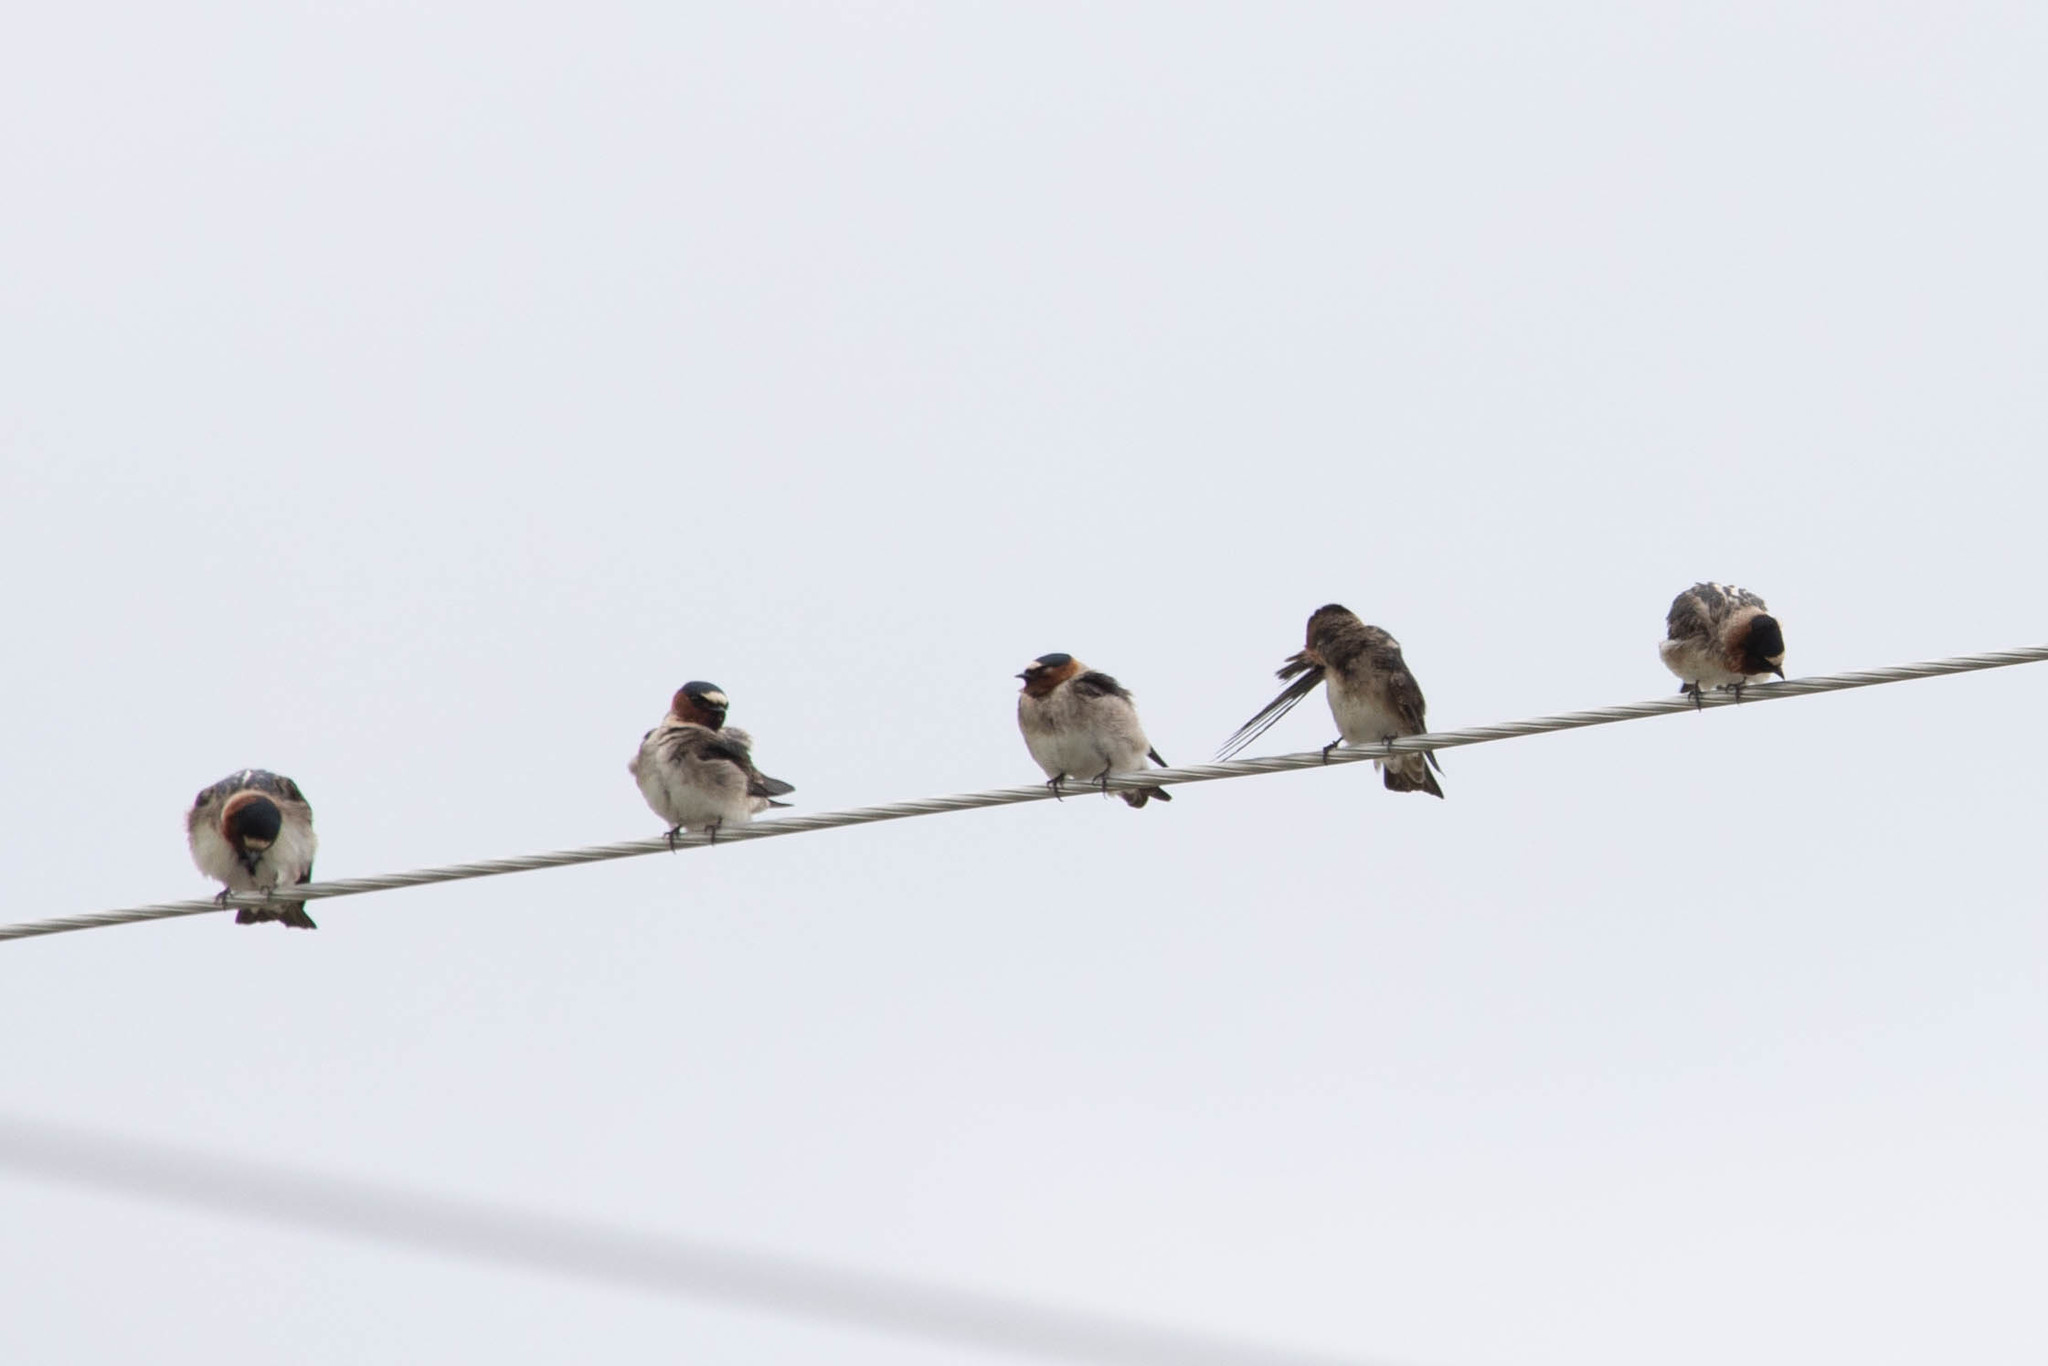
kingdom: Animalia
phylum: Chordata
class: Aves
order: Passeriformes
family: Hirundinidae
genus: Petrochelidon
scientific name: Petrochelidon pyrrhonota
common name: American cliff swallow
